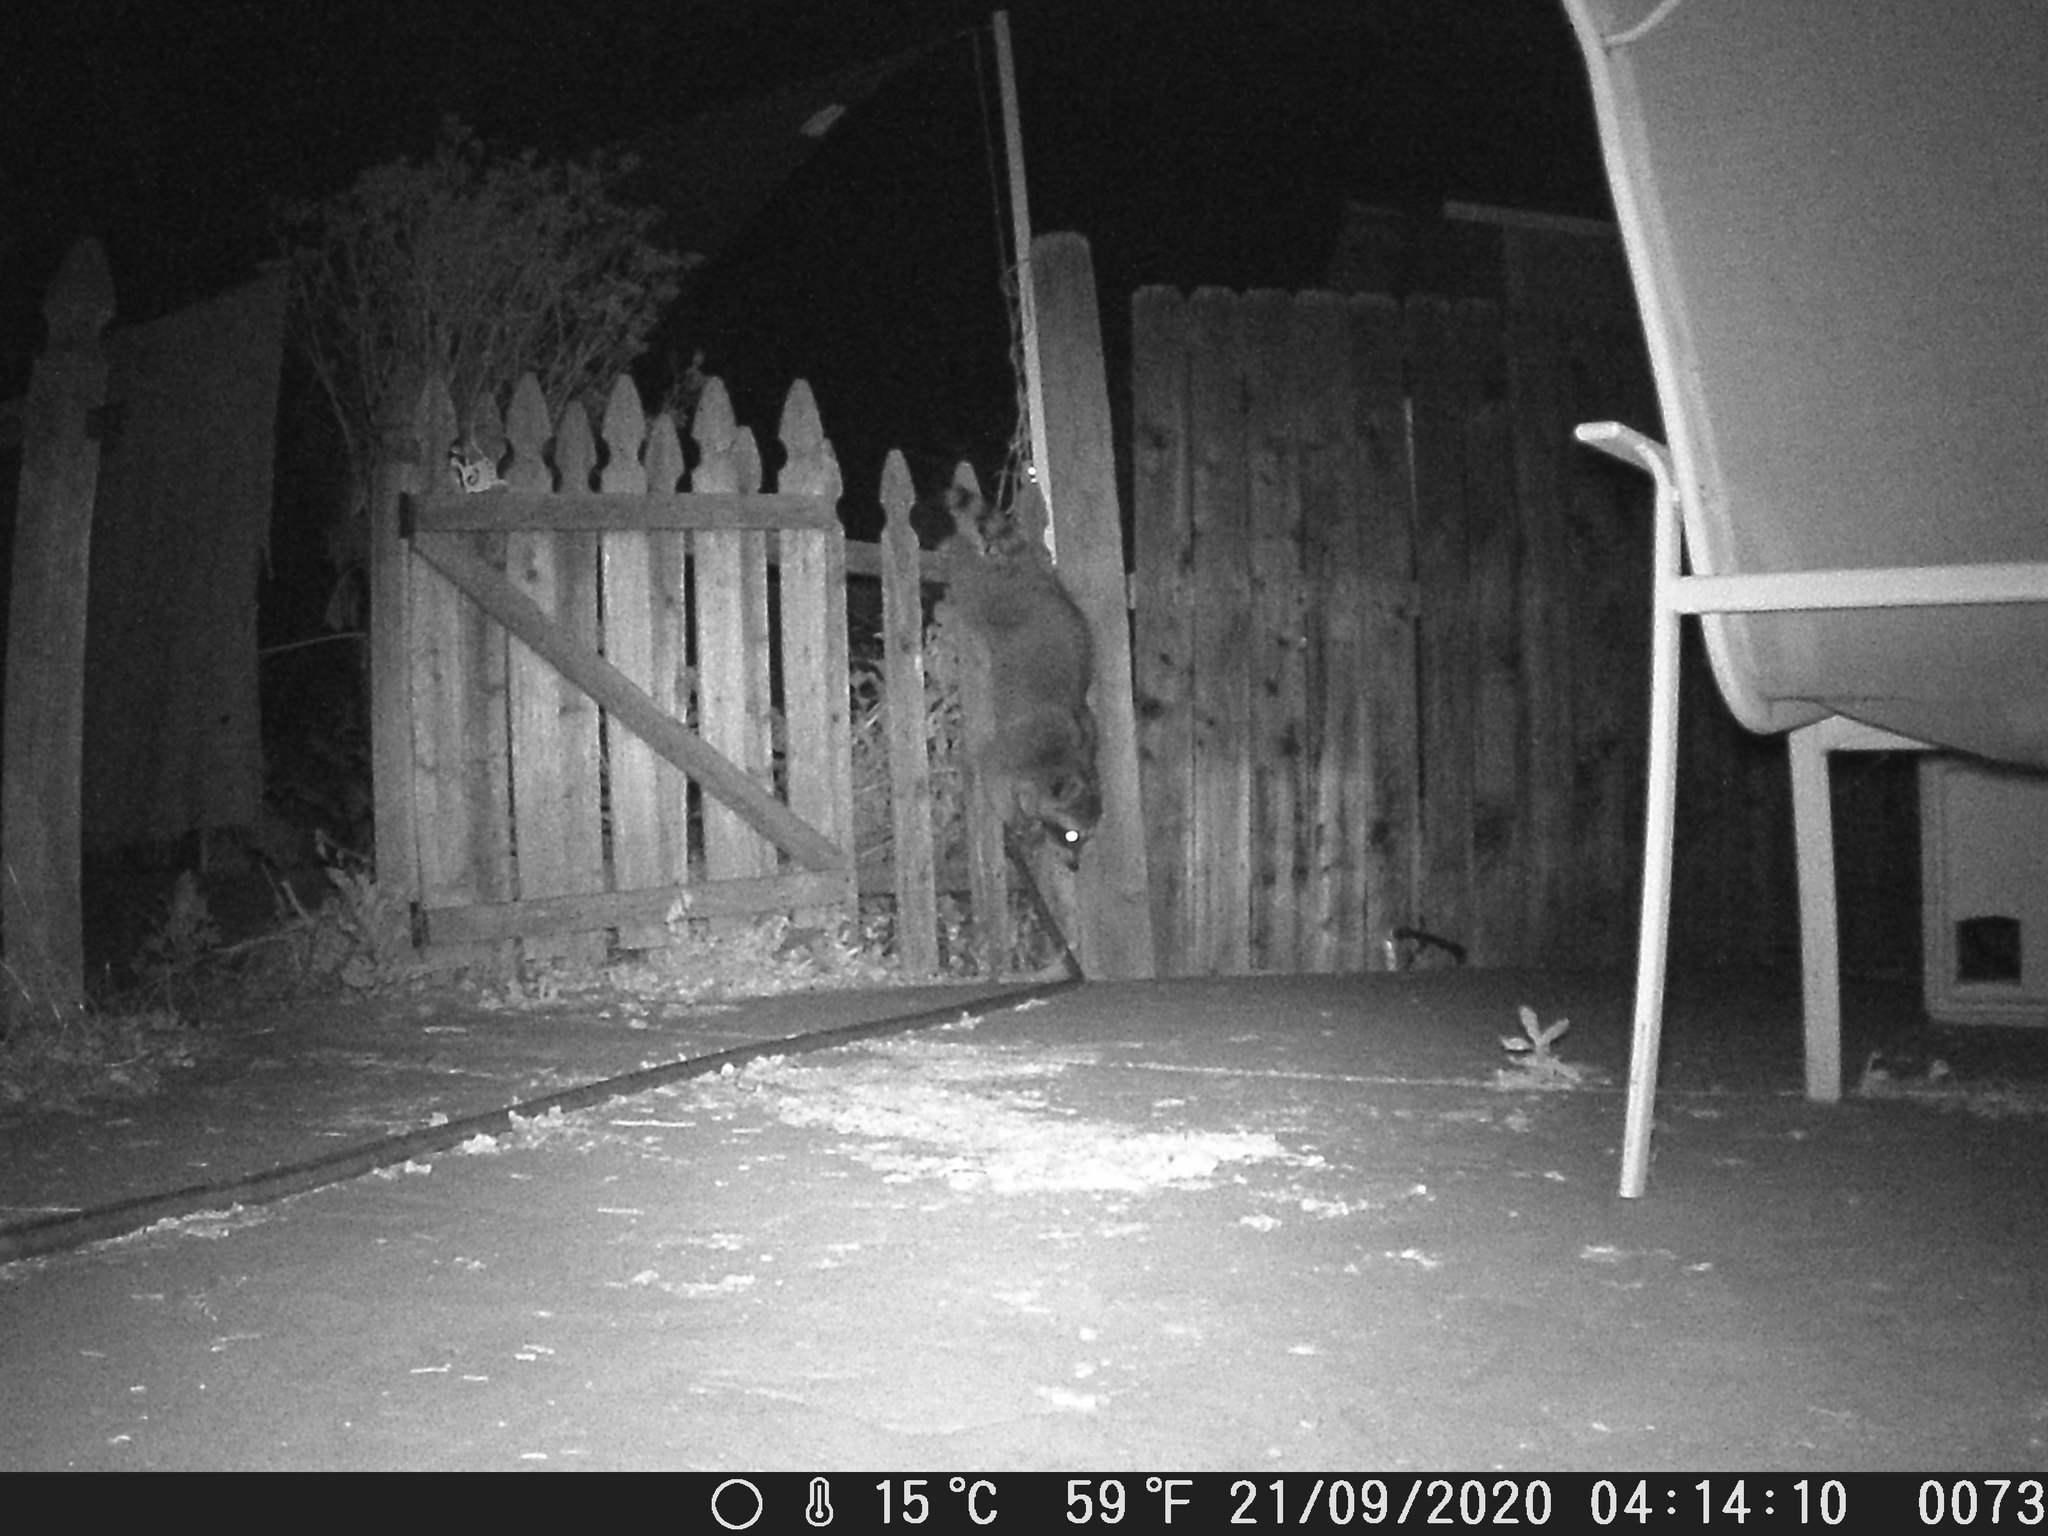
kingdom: Animalia
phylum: Chordata
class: Mammalia
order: Carnivora
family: Procyonidae
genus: Procyon
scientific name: Procyon lotor
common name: Raccoon
